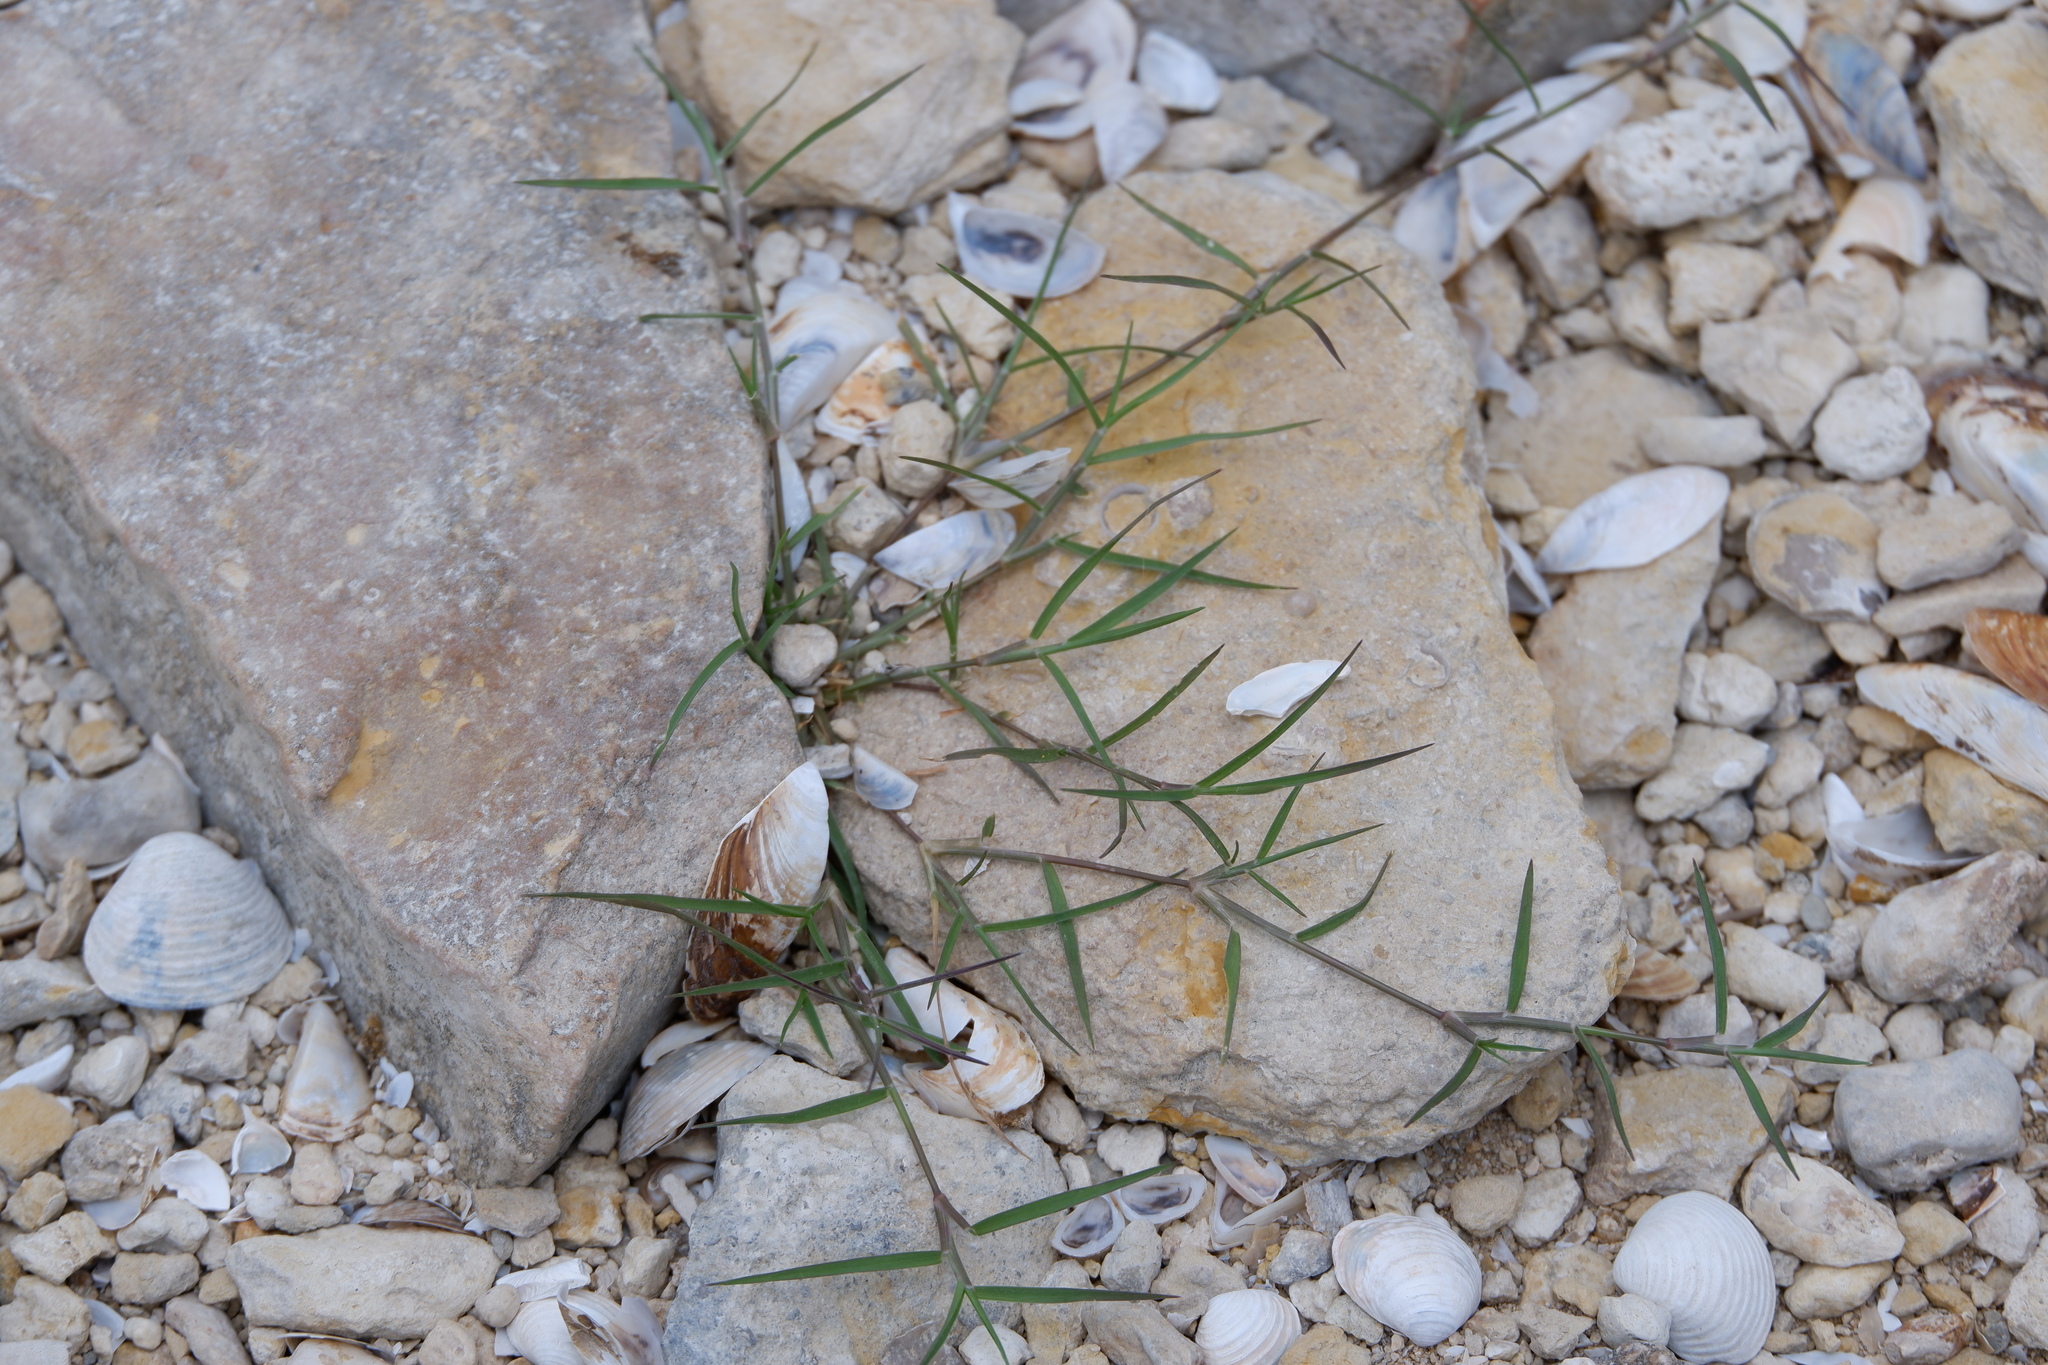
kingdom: Plantae
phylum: Tracheophyta
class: Liliopsida
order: Poales
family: Poaceae
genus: Cynodon
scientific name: Cynodon dactylon
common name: Bermuda grass
